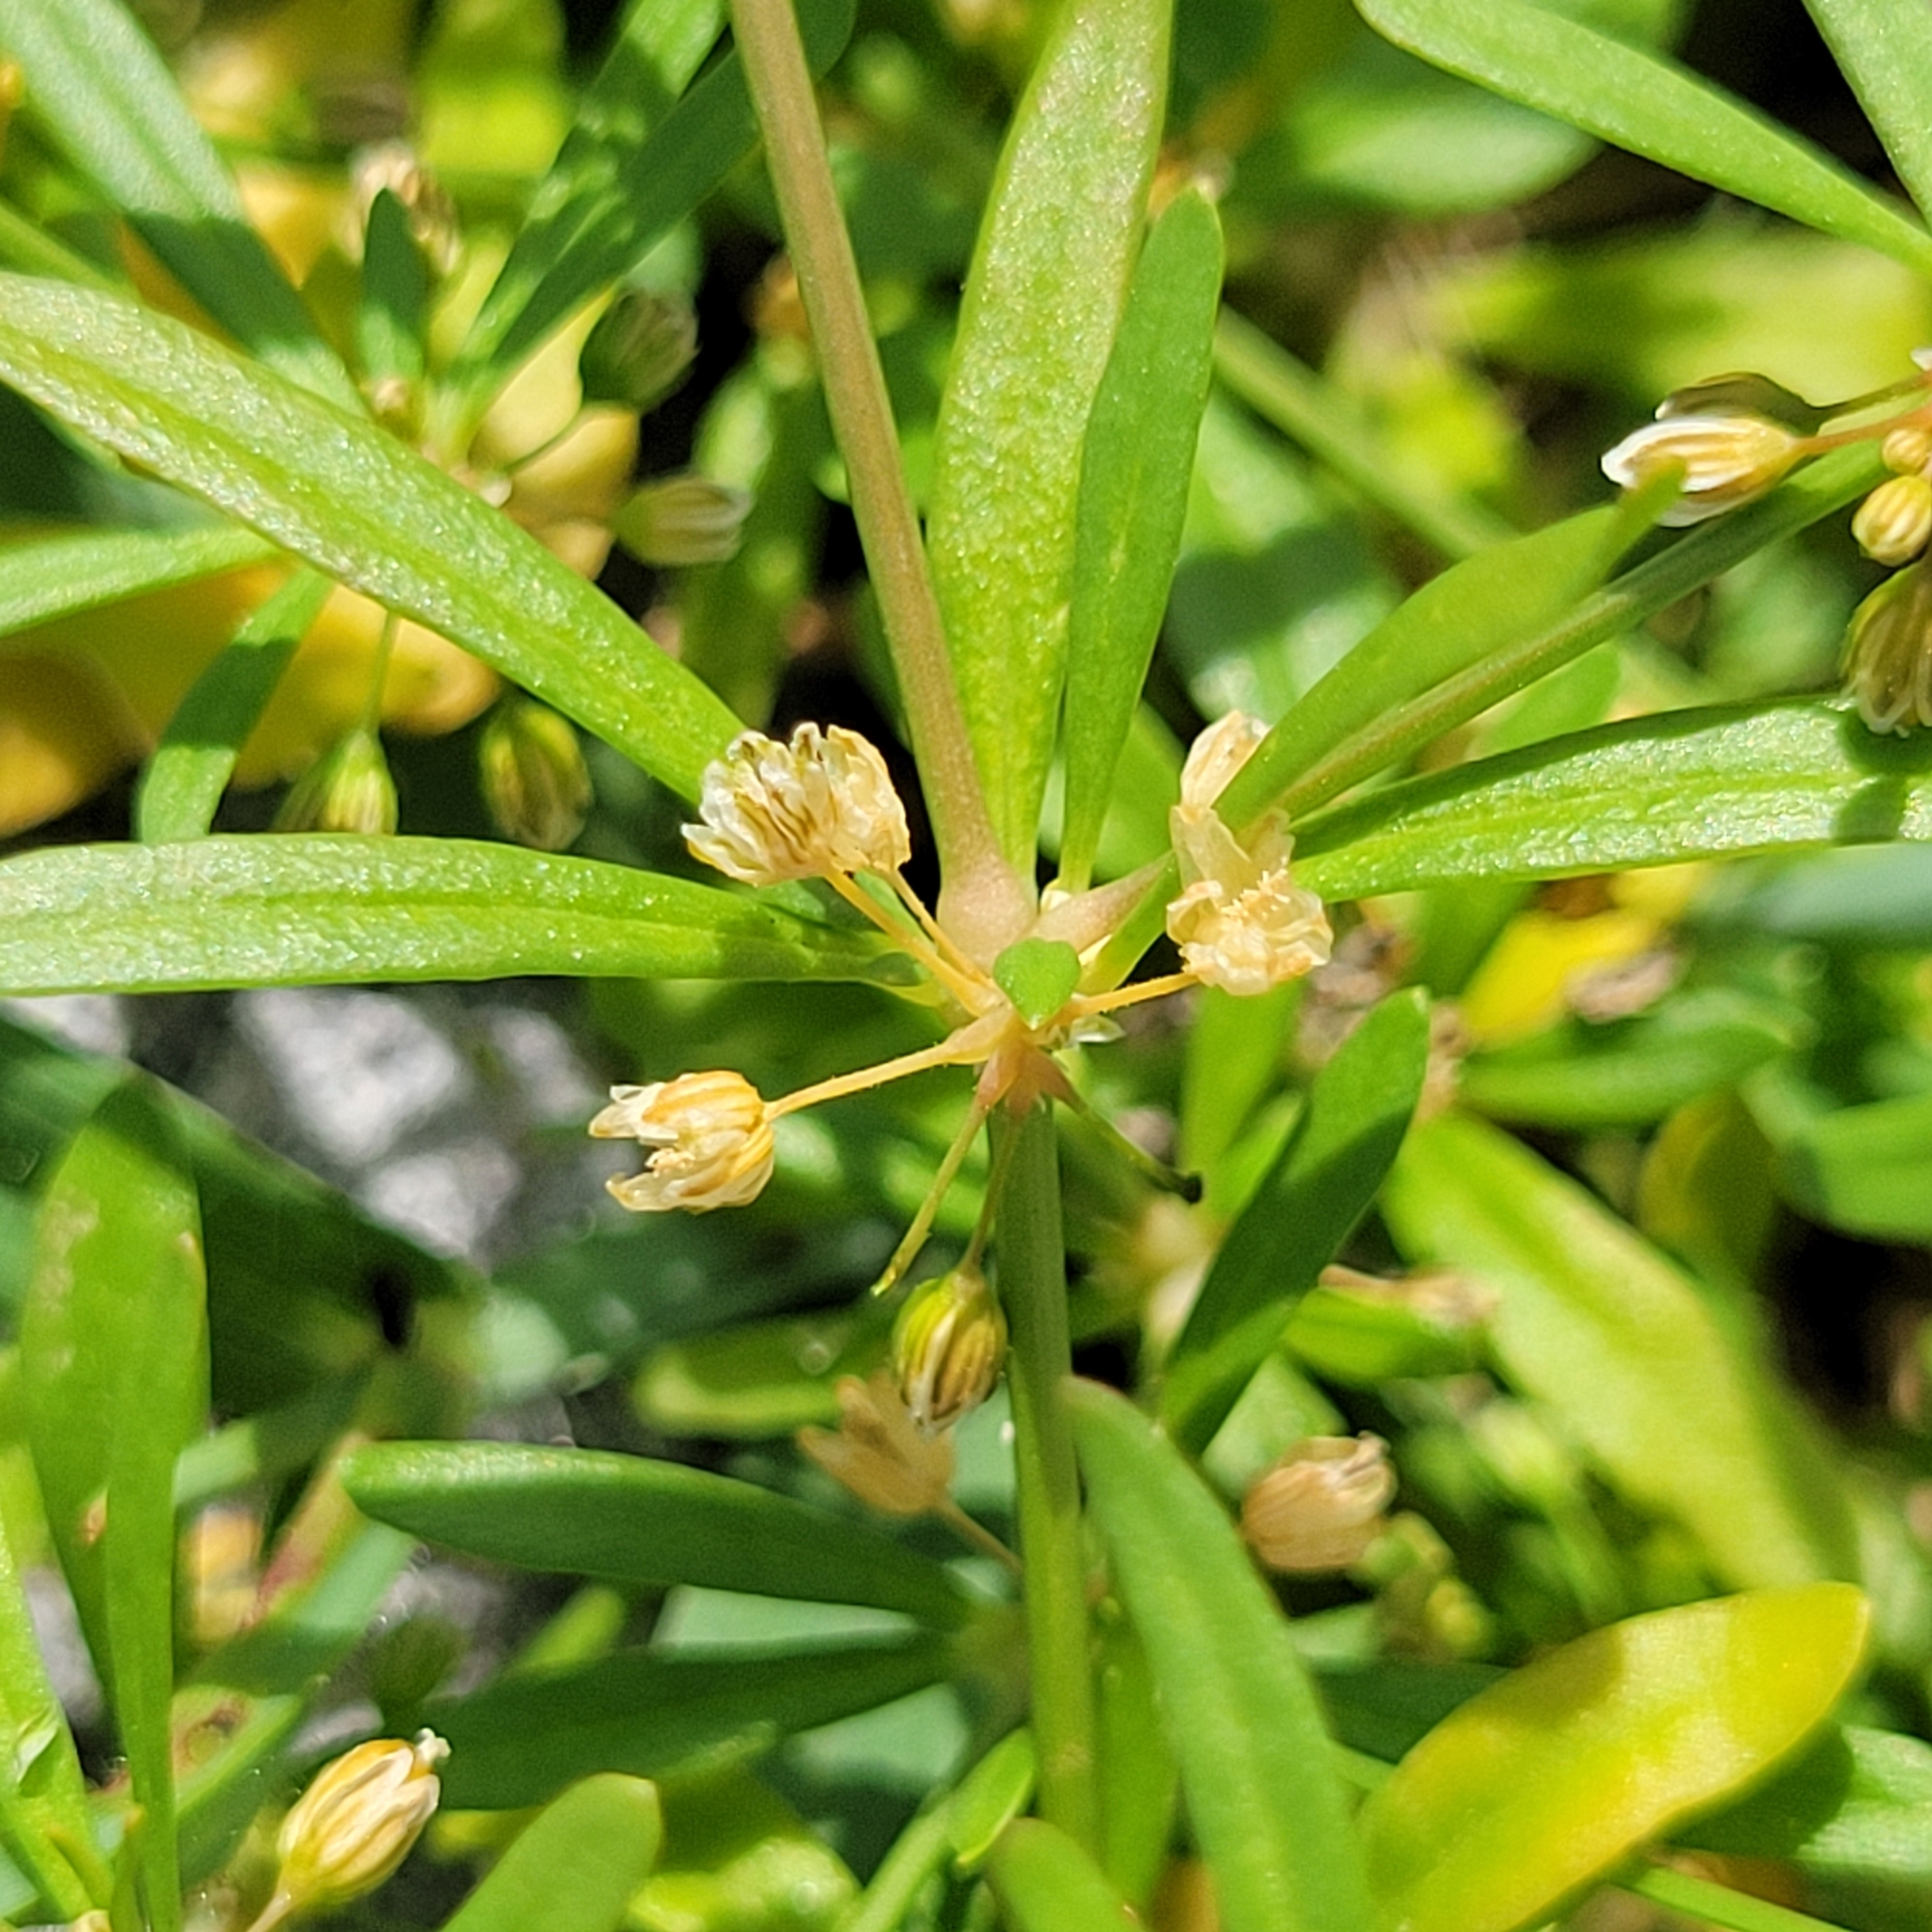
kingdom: Plantae
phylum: Tracheophyta
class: Magnoliopsida
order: Caryophyllales
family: Molluginaceae
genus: Mollugo
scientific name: Mollugo verticillata
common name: Green carpetweed
